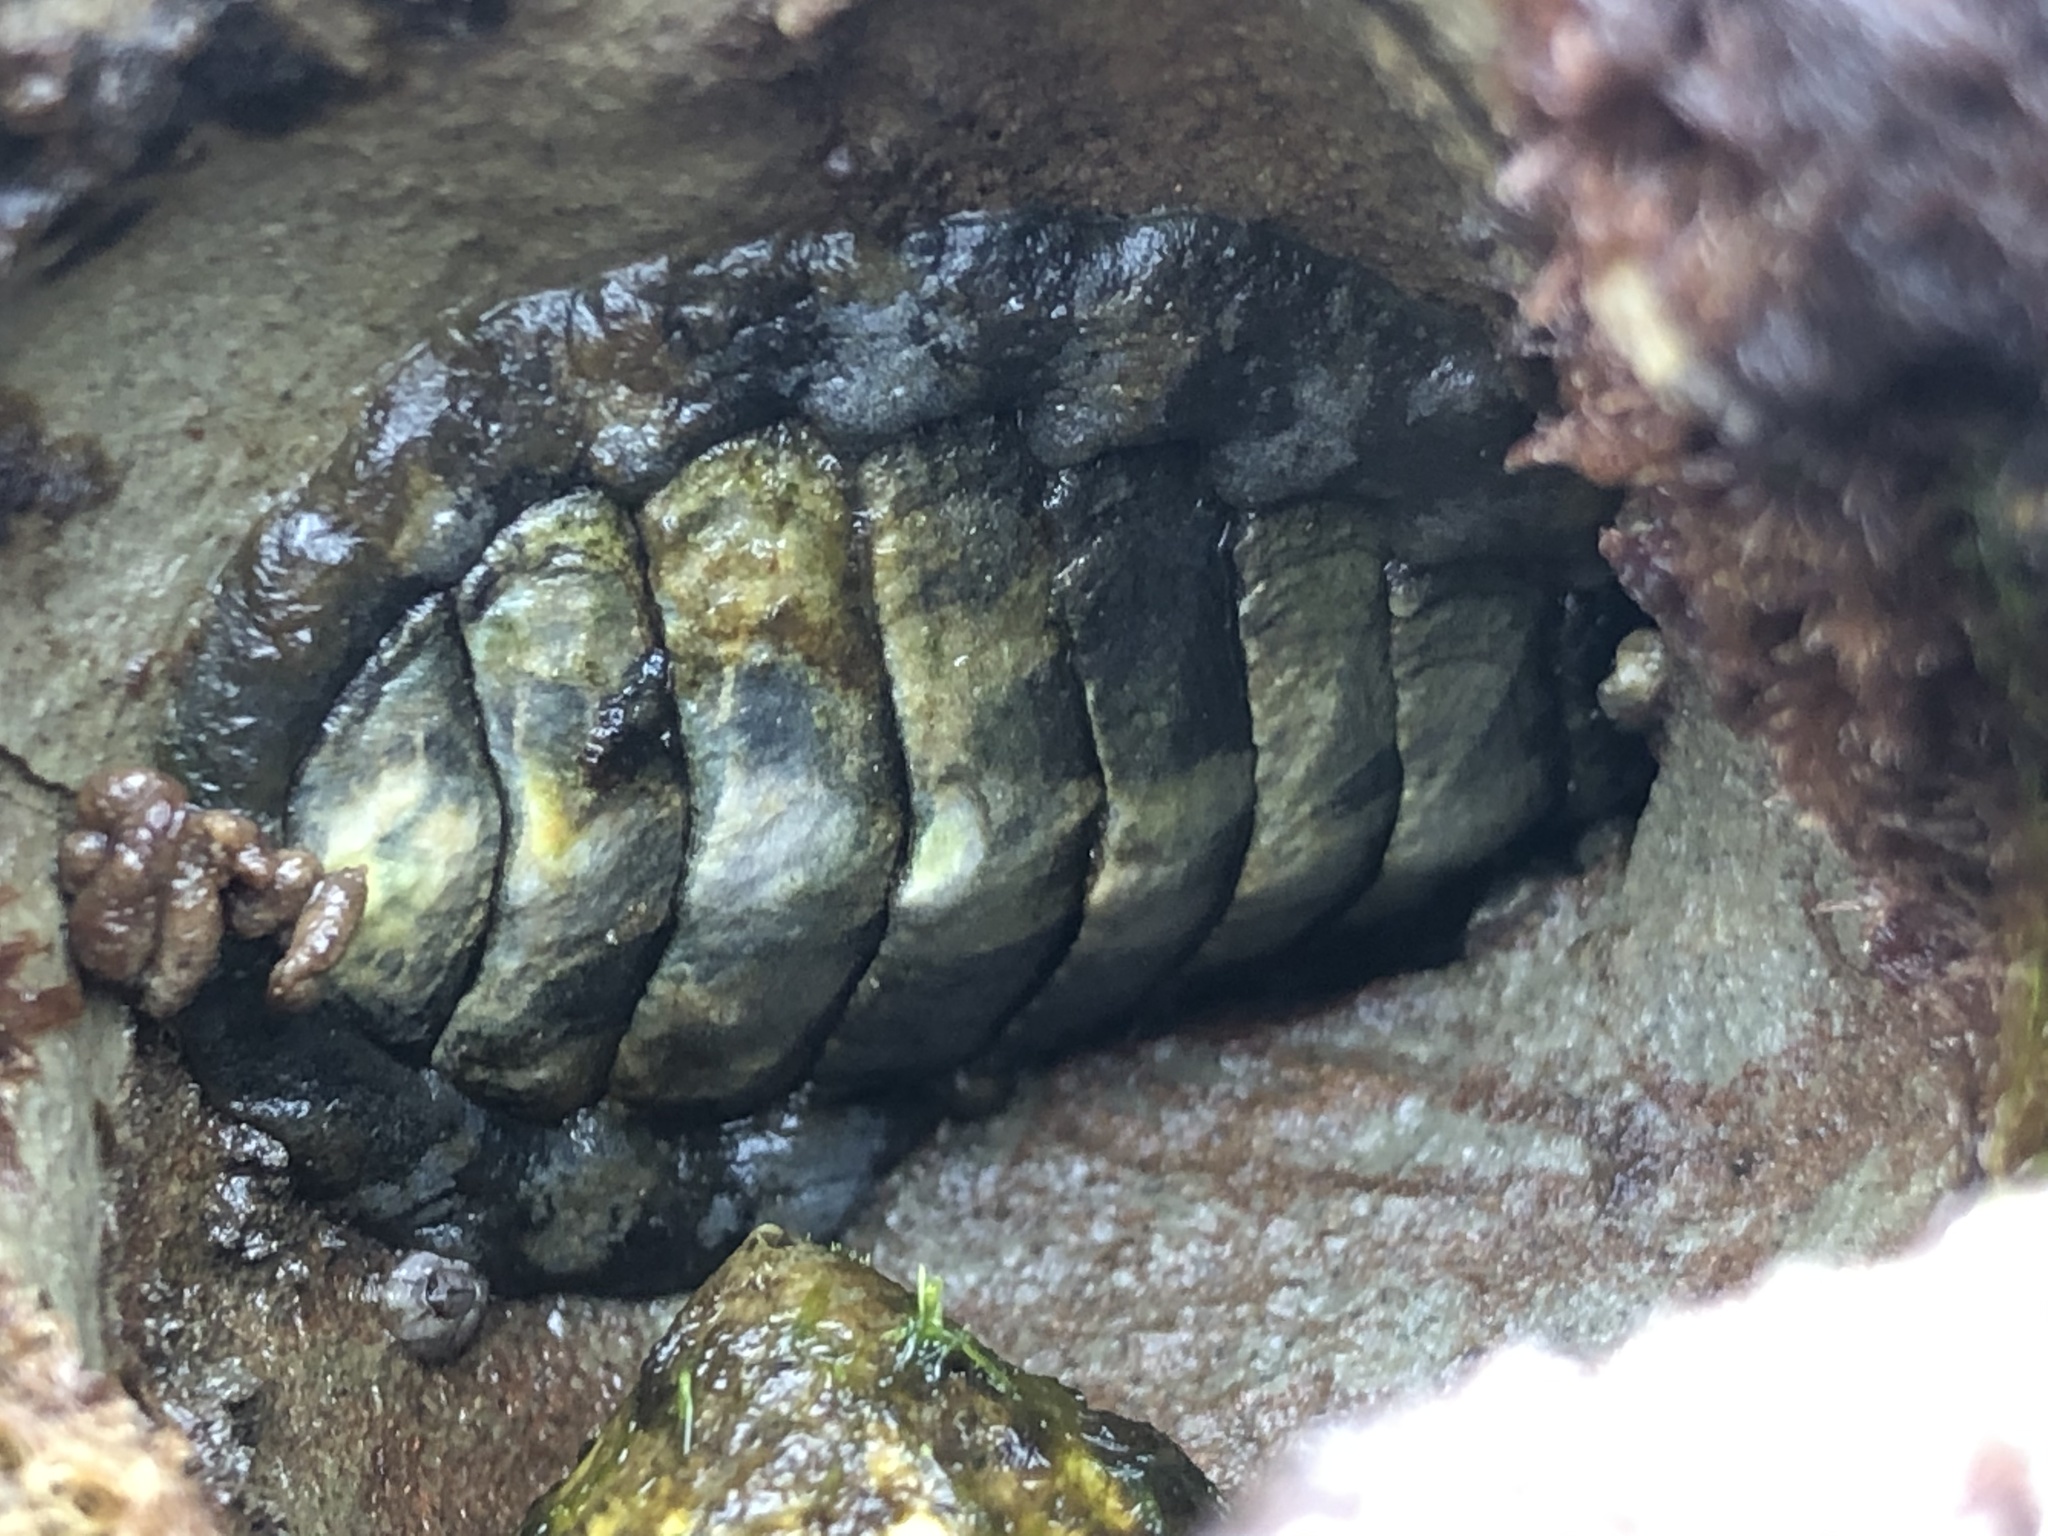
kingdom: Animalia
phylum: Mollusca
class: Polyplacophora
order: Chitonida
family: Tonicellidae
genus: Cyanoplax
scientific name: Cyanoplax hartwegii
